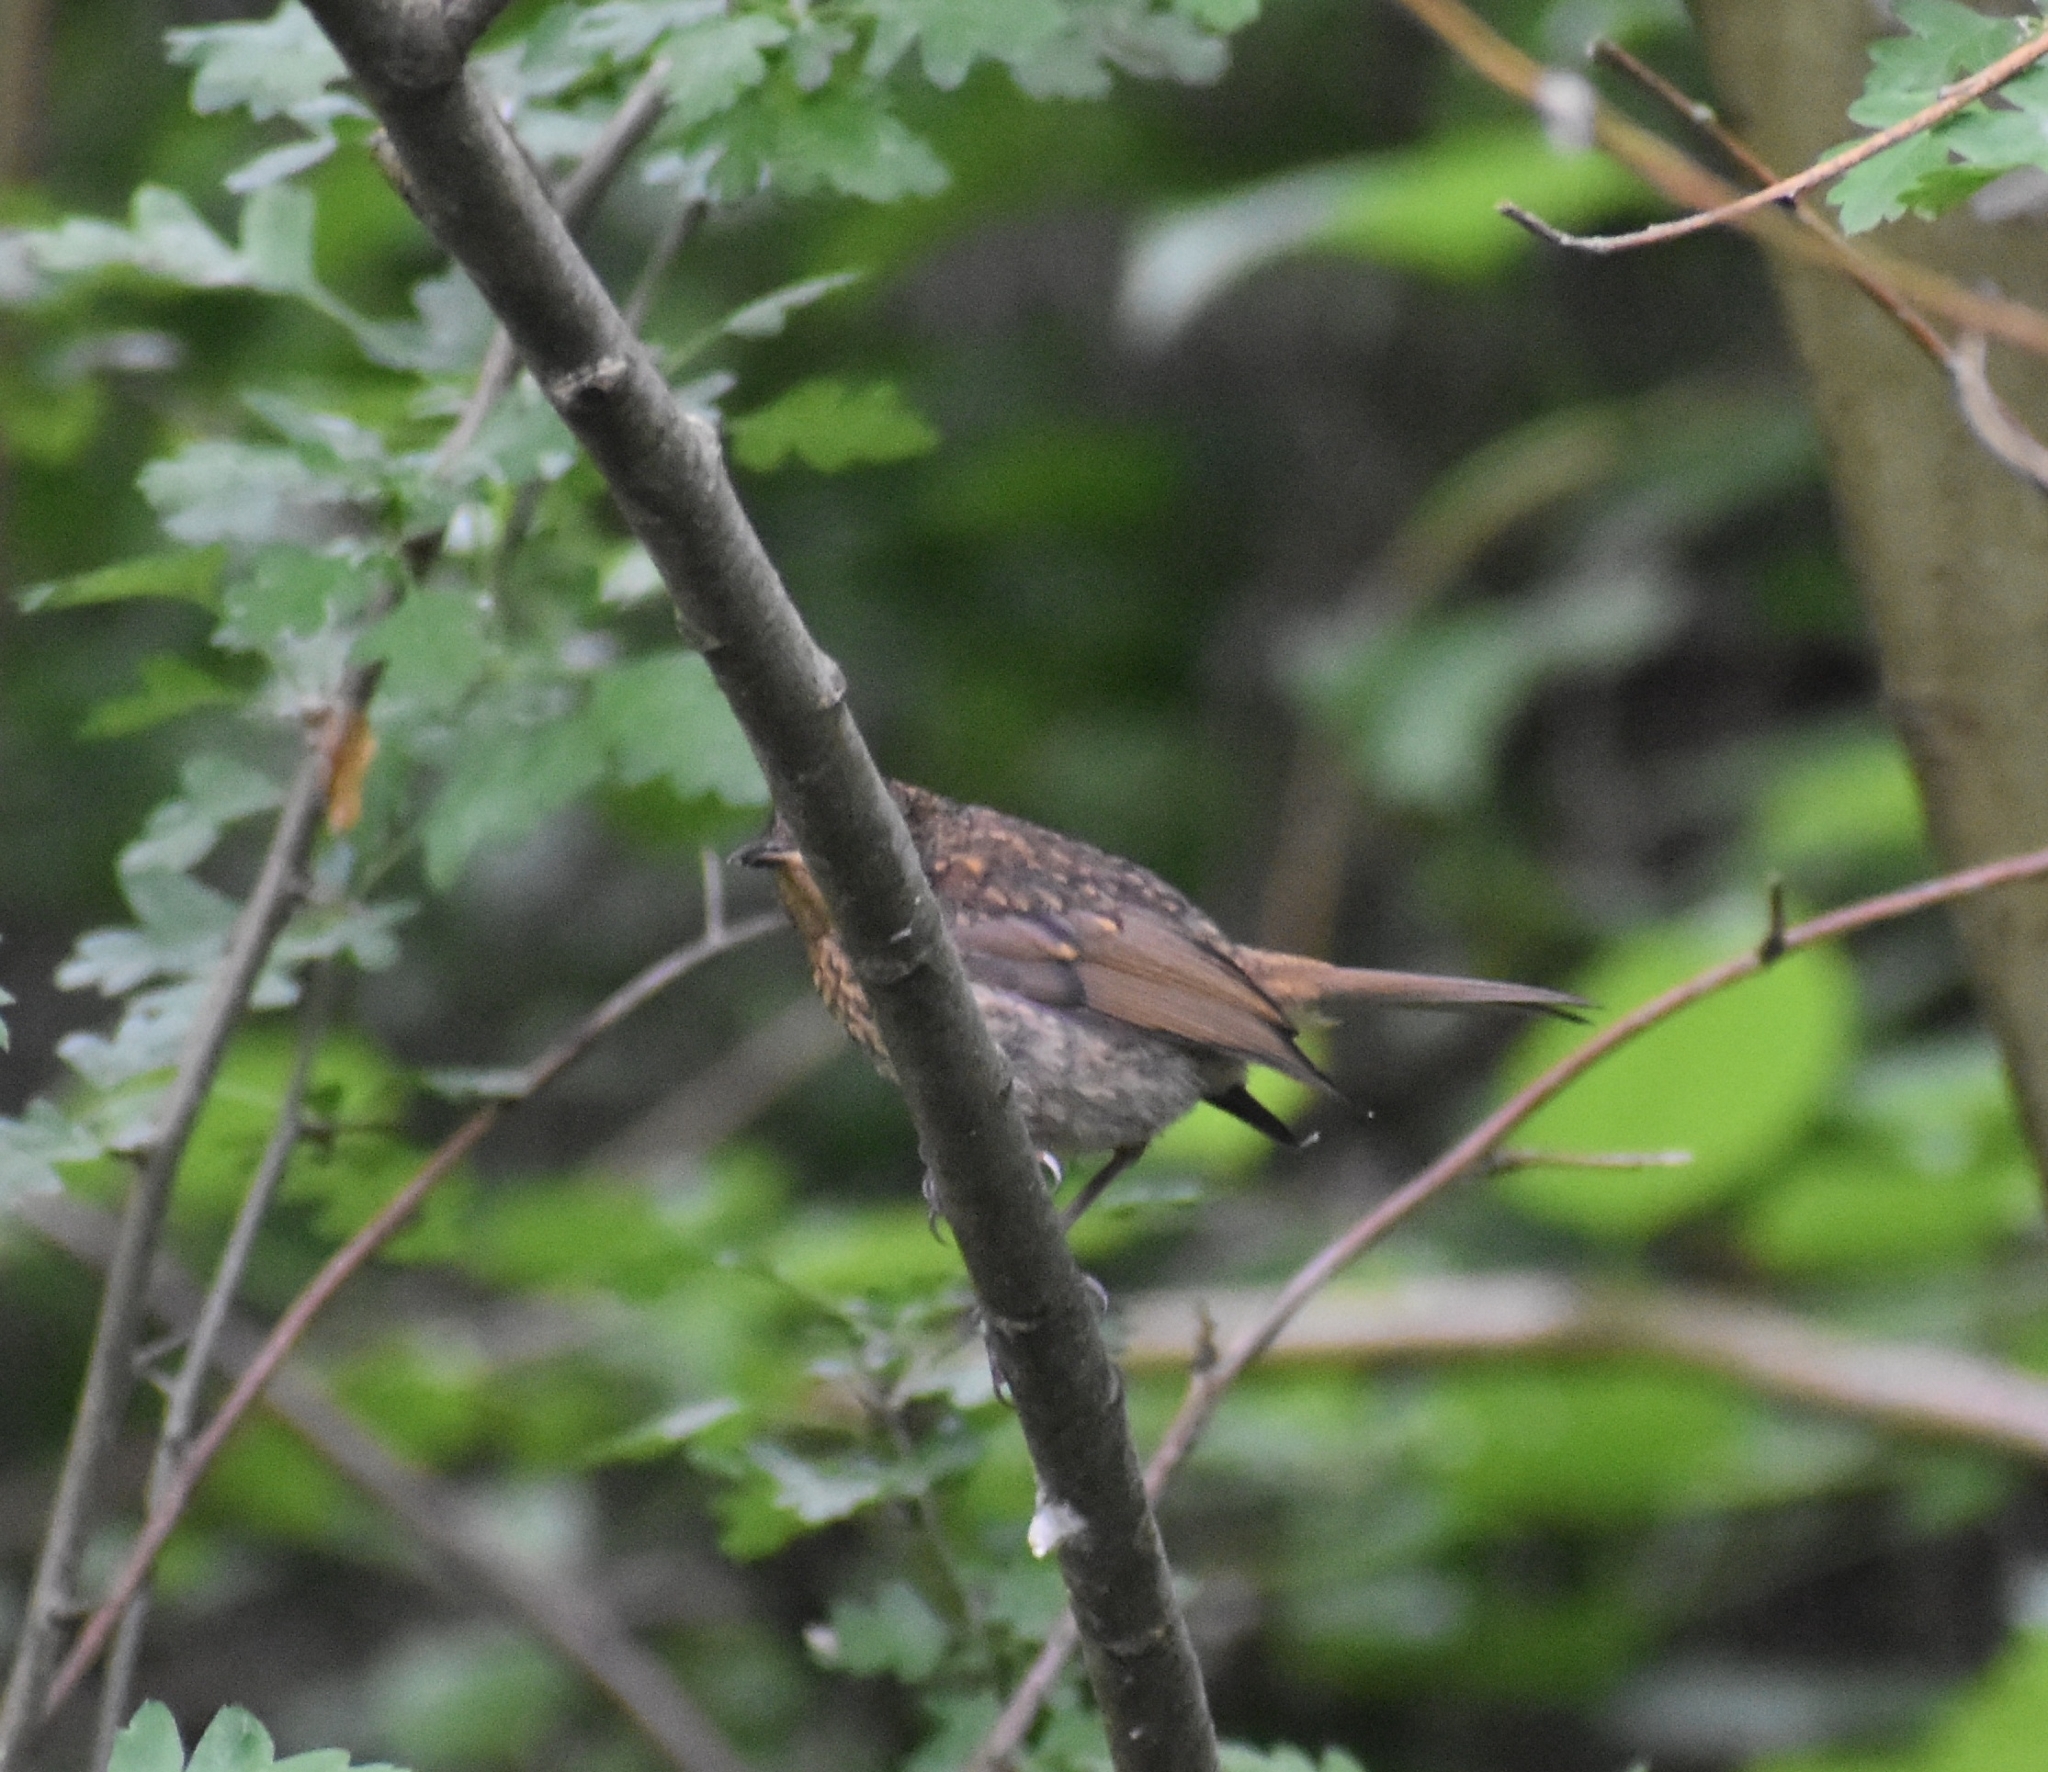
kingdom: Animalia
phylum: Chordata
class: Aves
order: Passeriformes
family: Muscicapidae
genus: Erithacus
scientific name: Erithacus rubecula
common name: European robin
